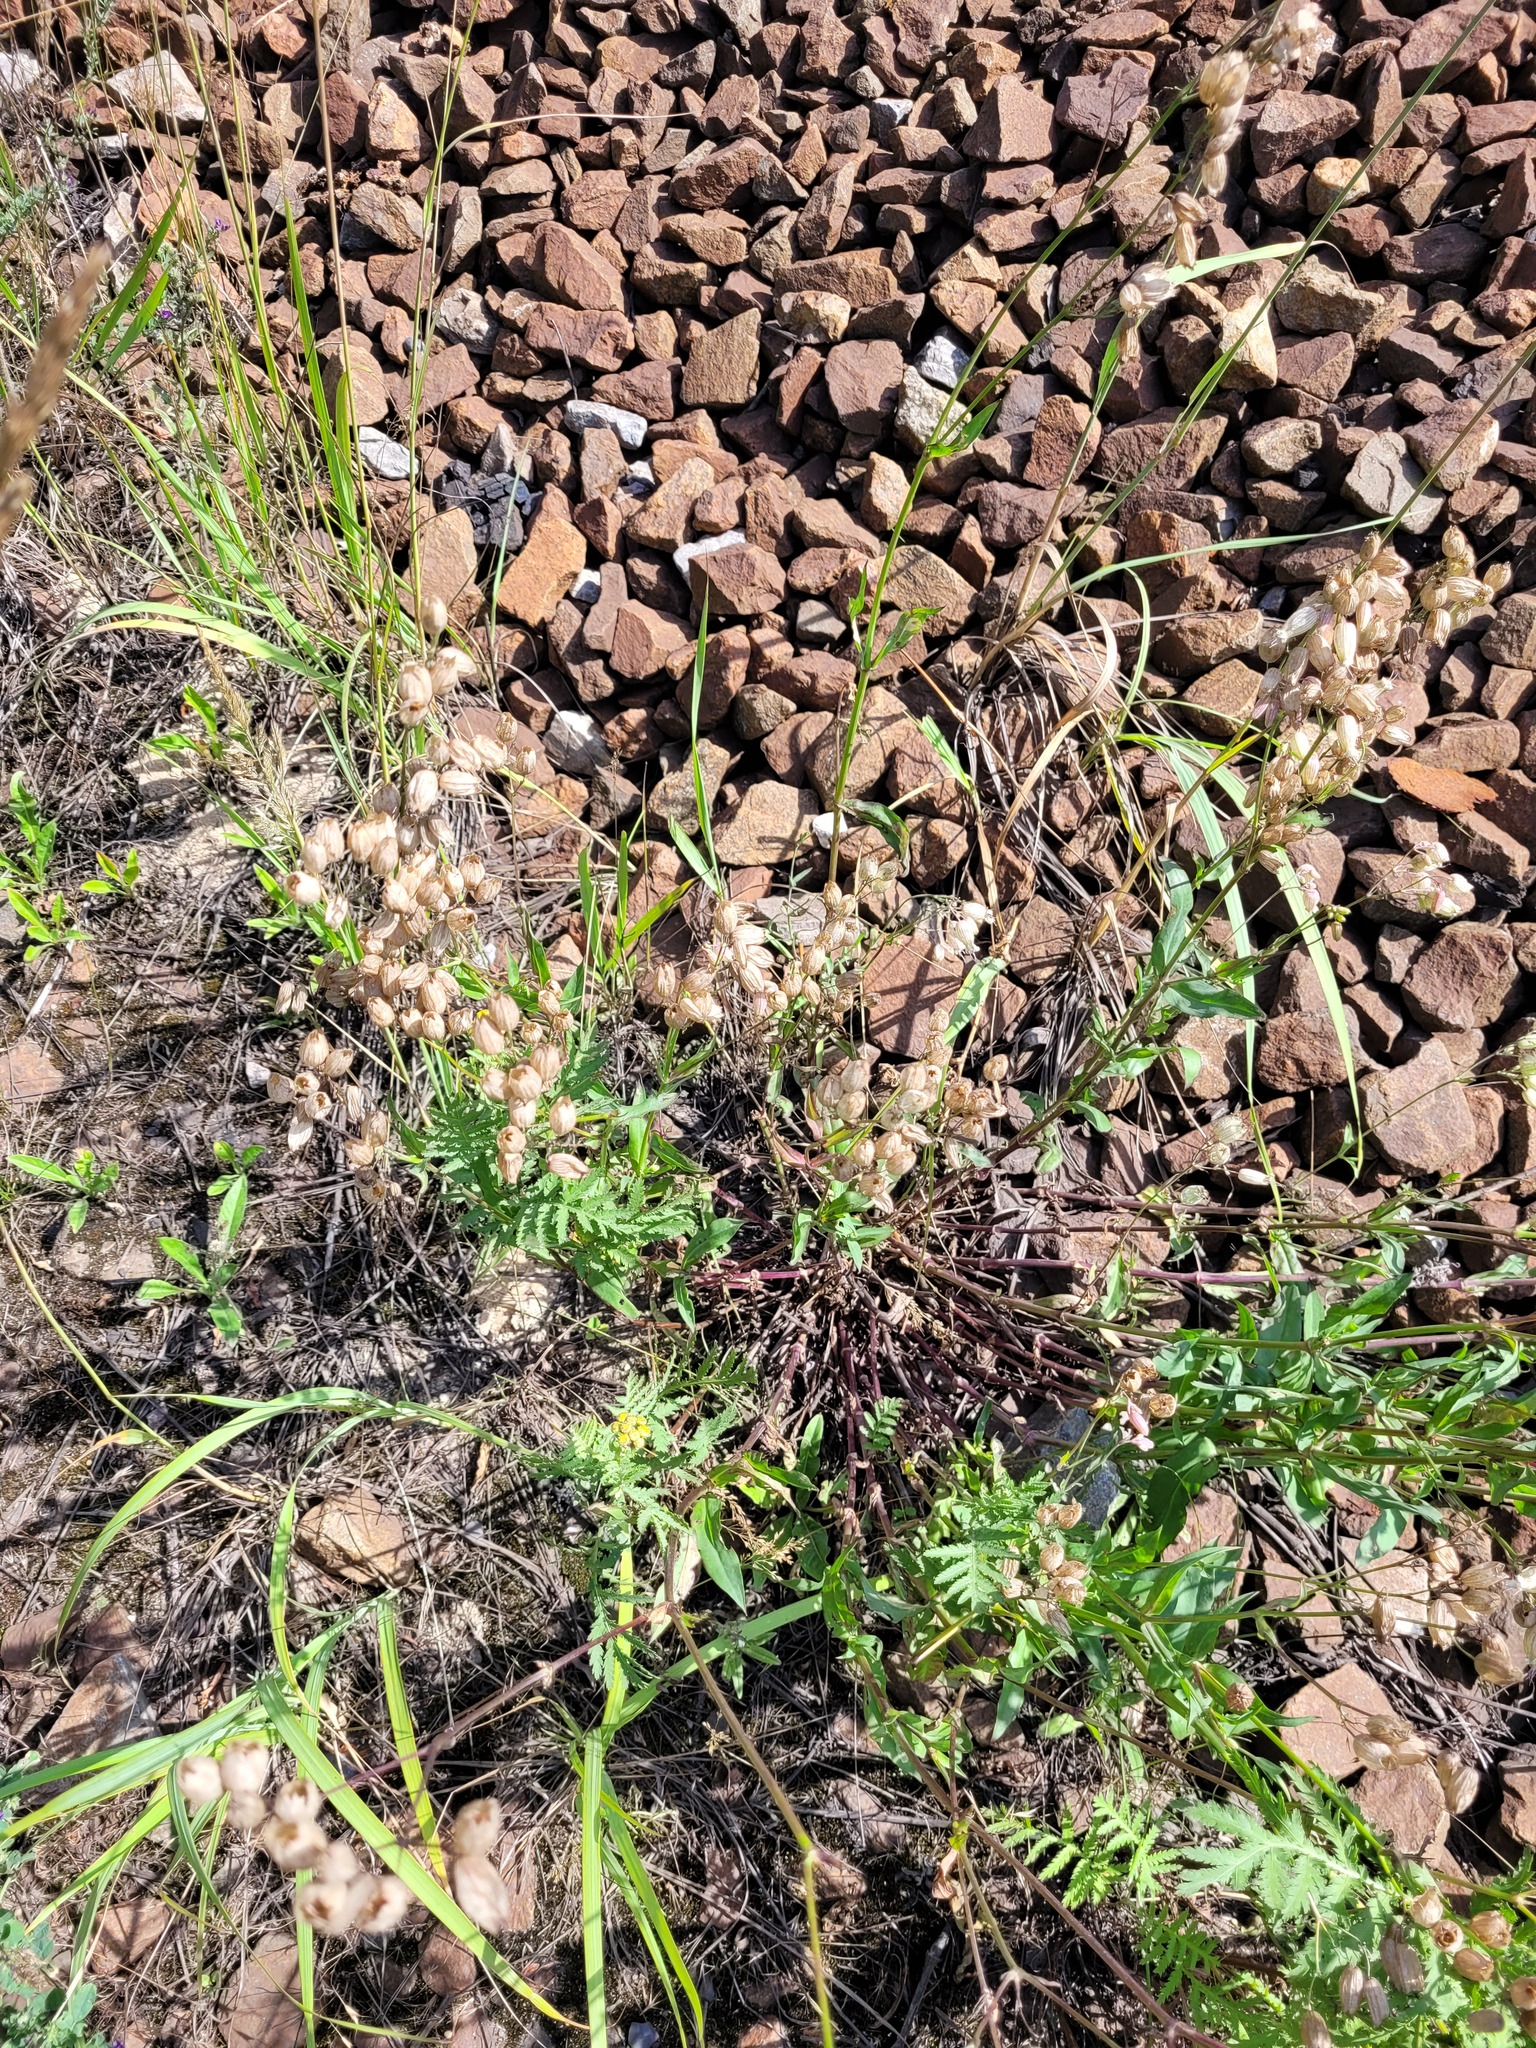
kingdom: Plantae
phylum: Tracheophyta
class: Magnoliopsida
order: Caryophyllales
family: Caryophyllaceae
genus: Silene
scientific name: Silene vulgaris
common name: Bladder campion
